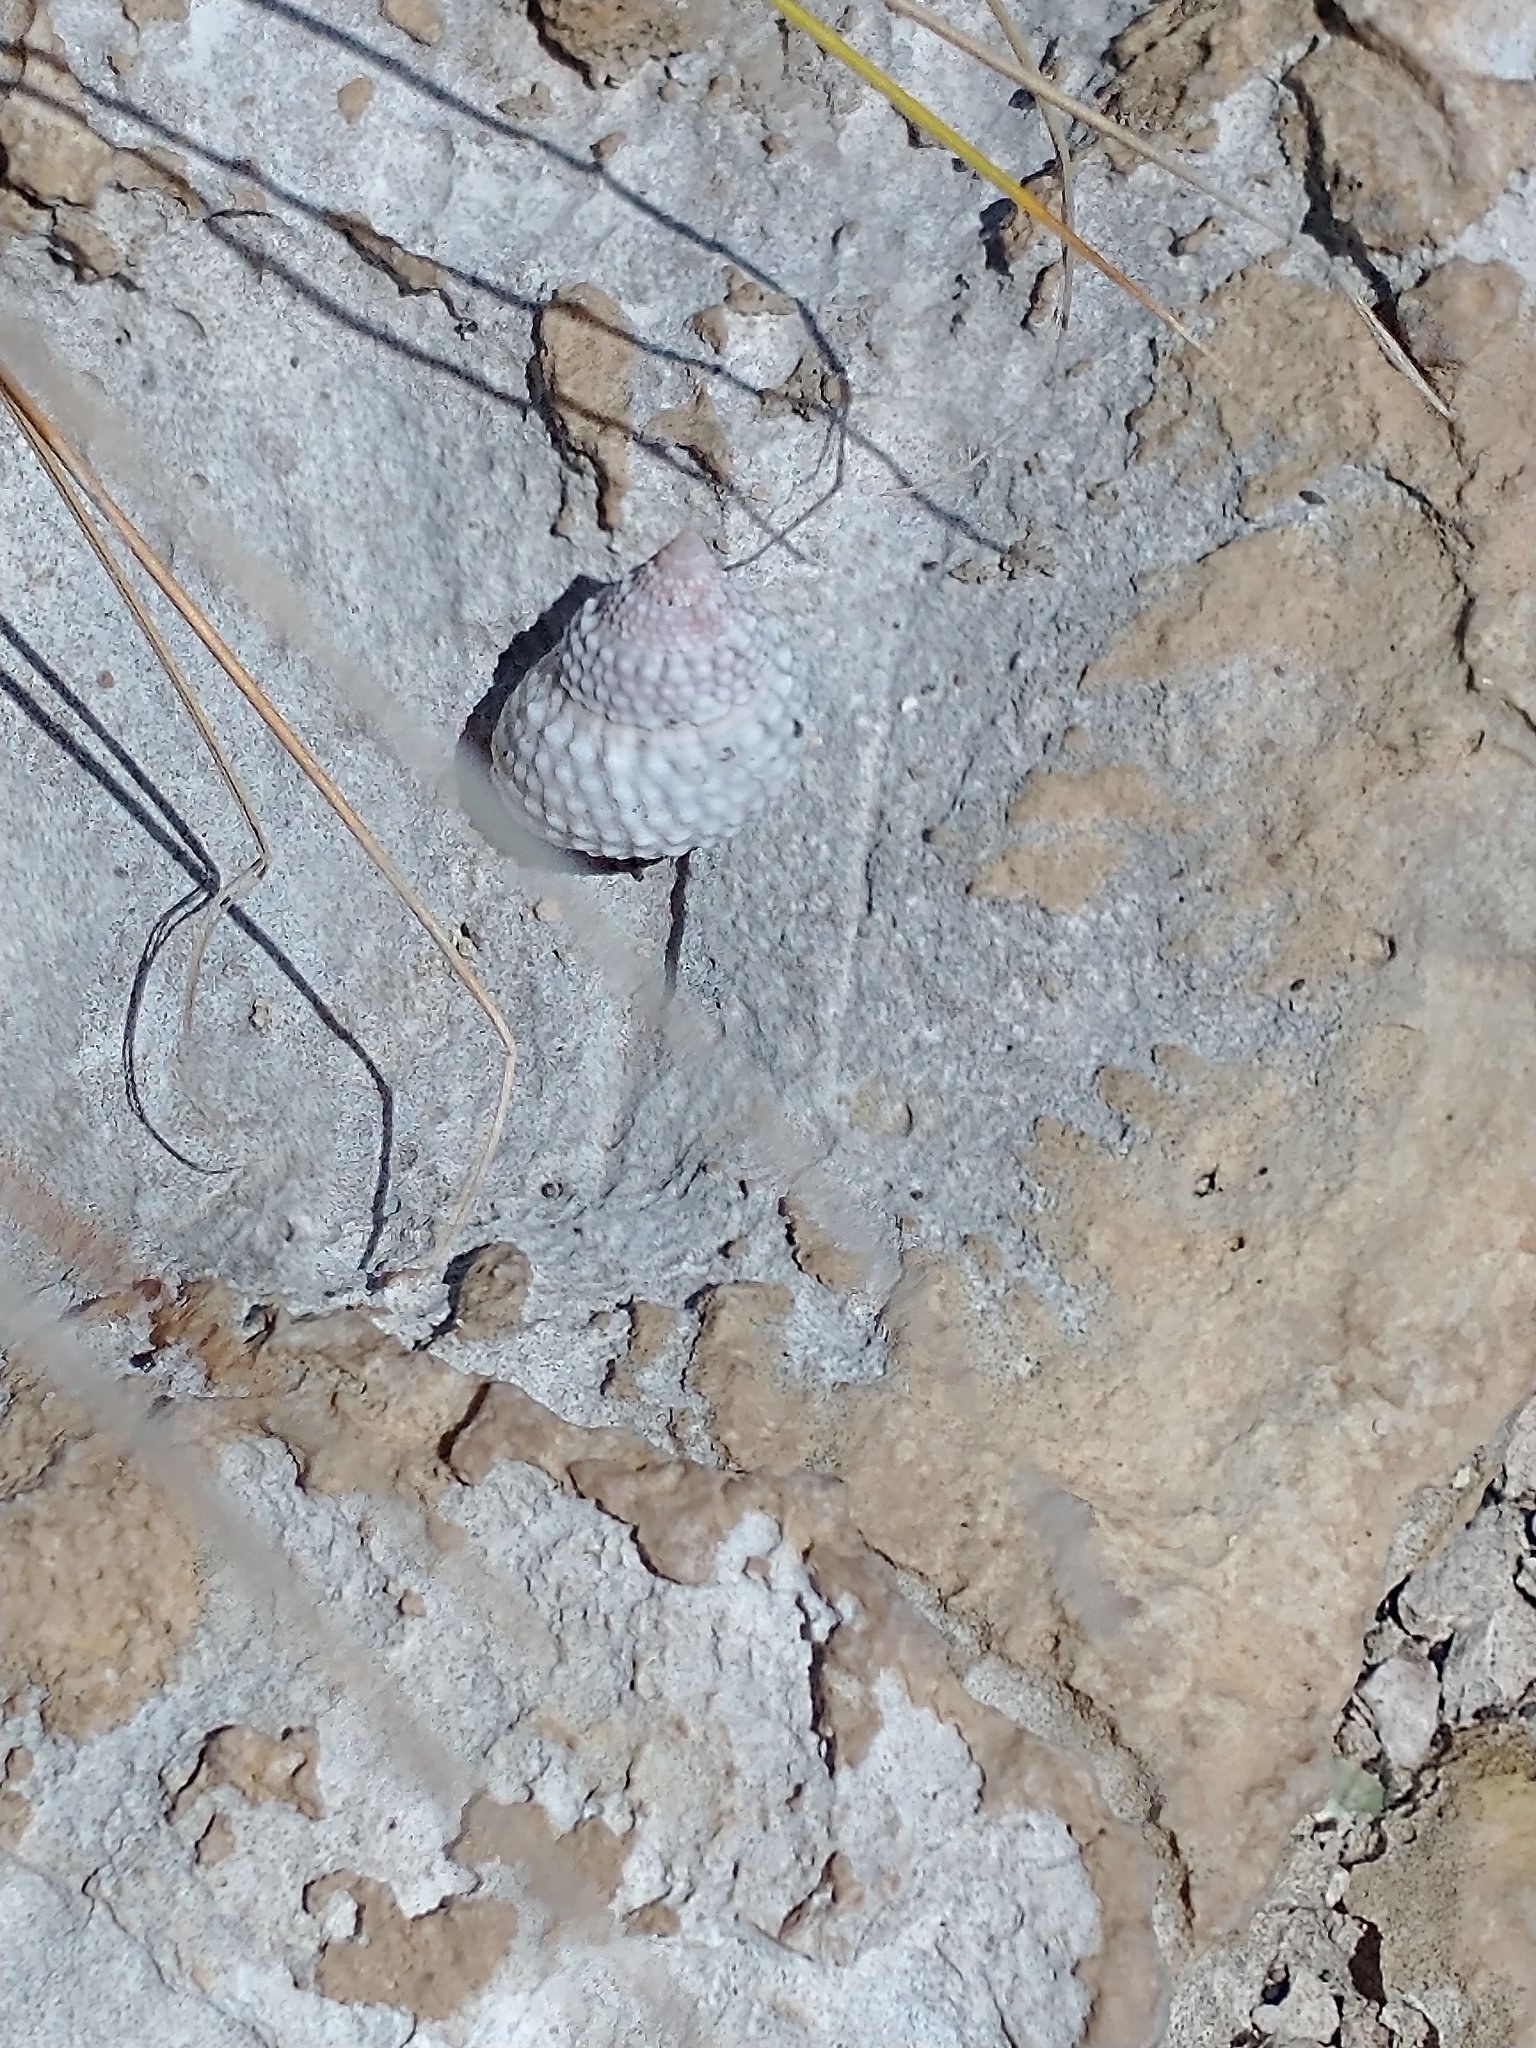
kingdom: Animalia
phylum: Mollusca
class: Gastropoda
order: Littorinimorpha
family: Littorinidae
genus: Cenchritis
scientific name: Cenchritis muricatus
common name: Beaded periwinkle
